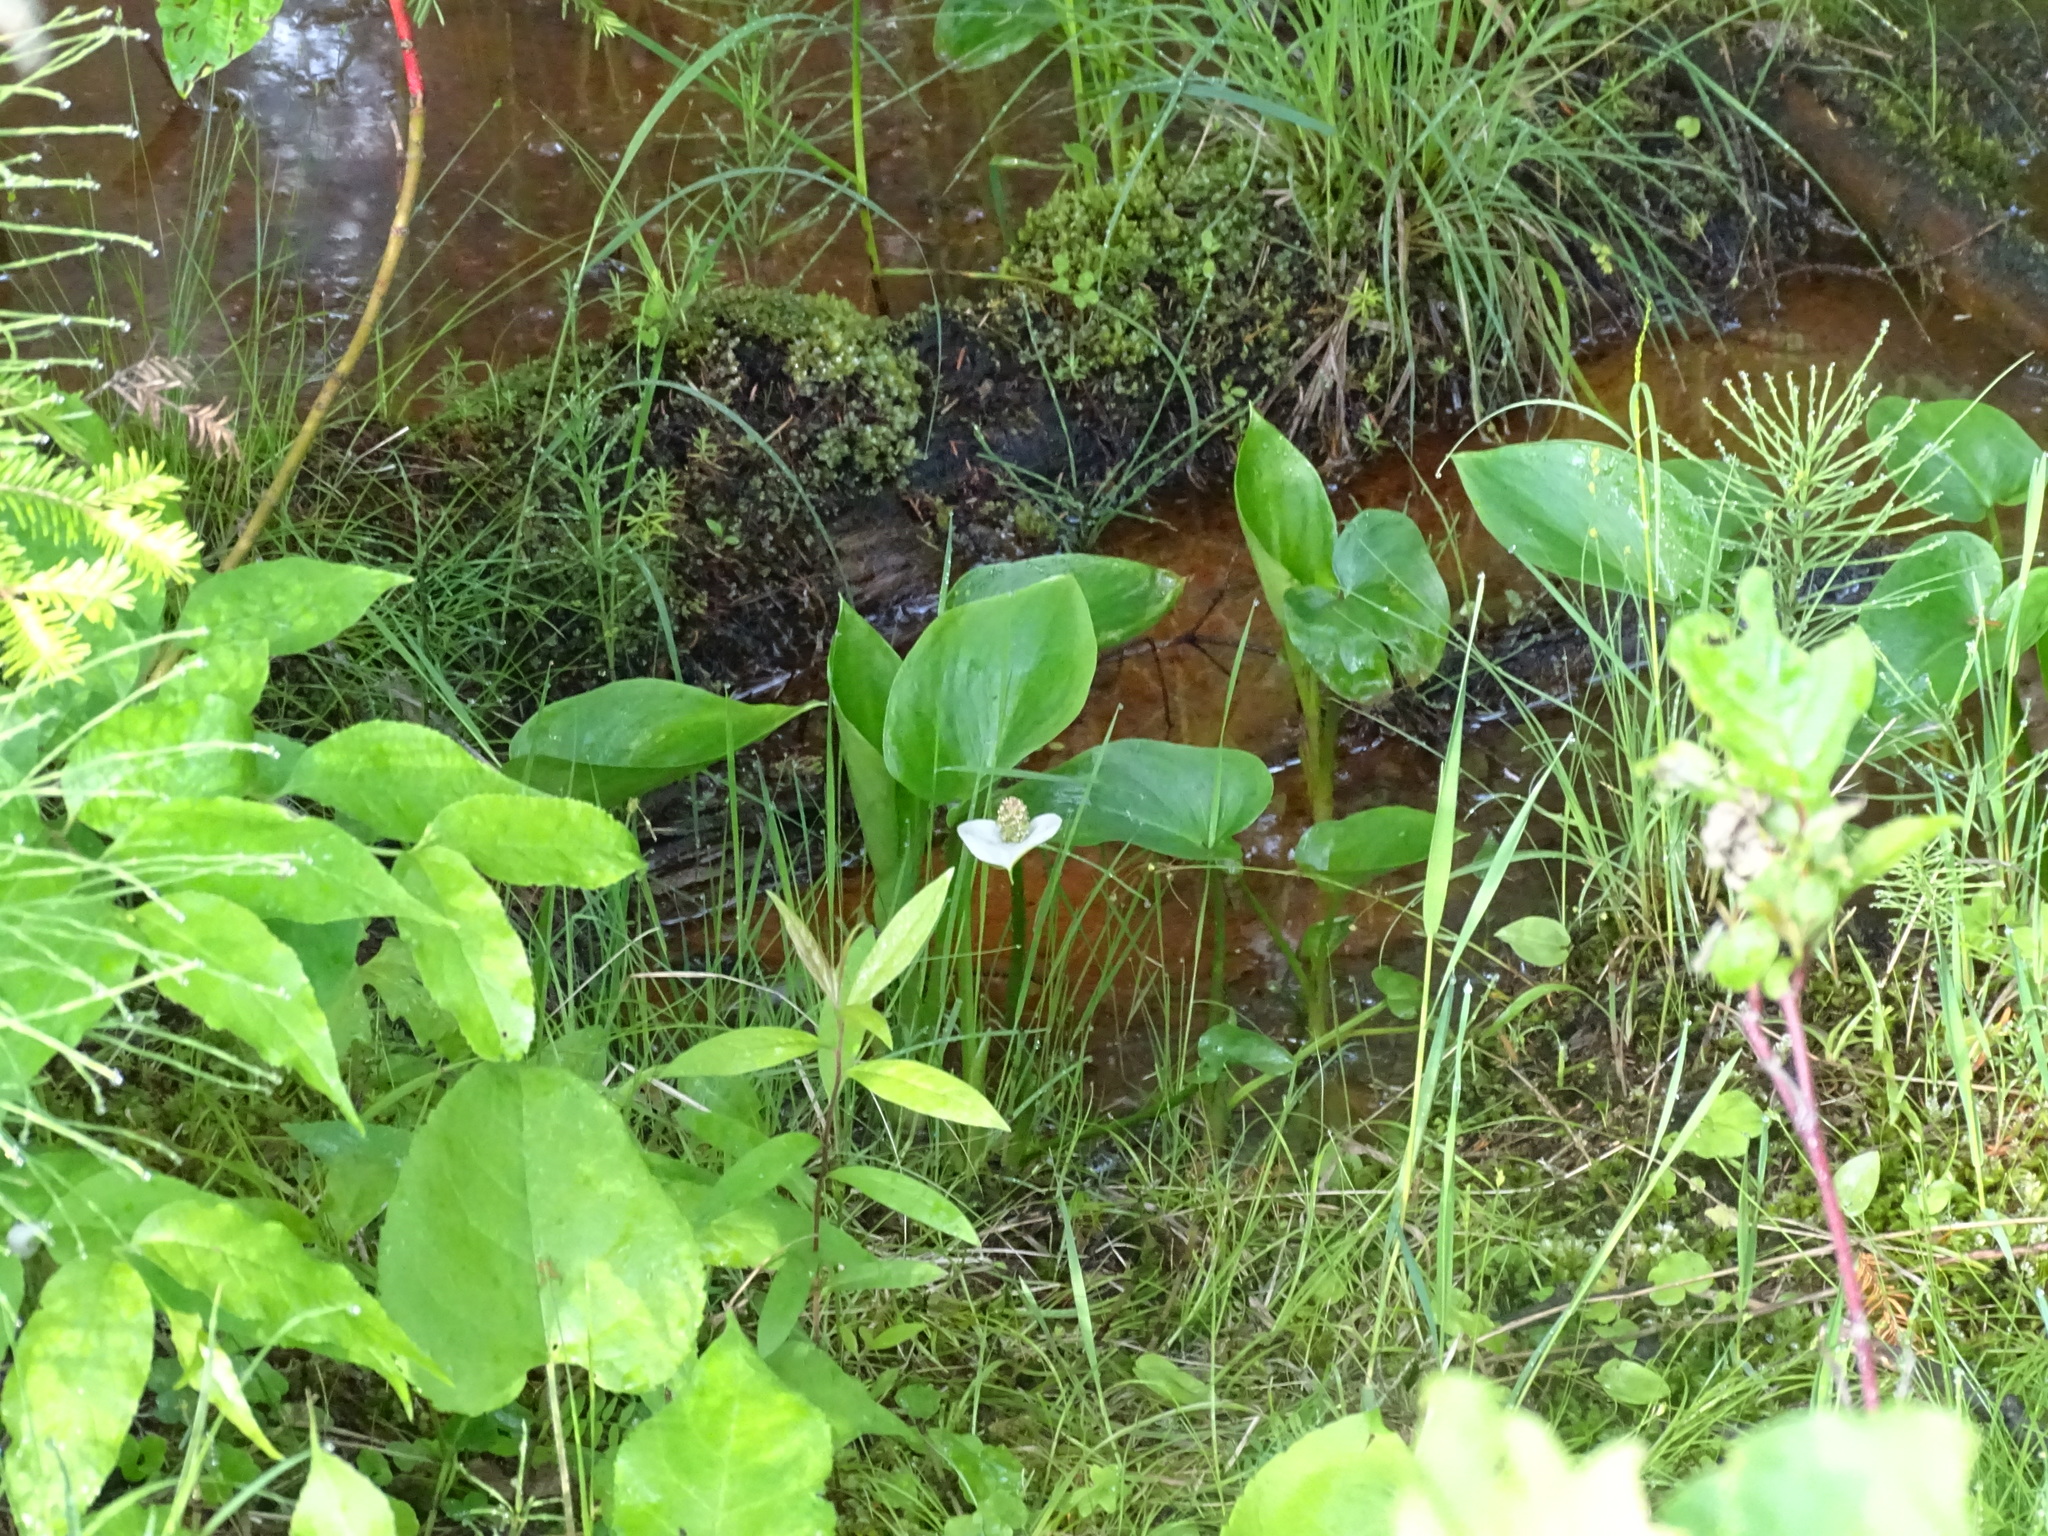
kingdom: Plantae
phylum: Tracheophyta
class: Liliopsida
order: Alismatales
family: Araceae
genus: Calla
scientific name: Calla palustris
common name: Bog arum
